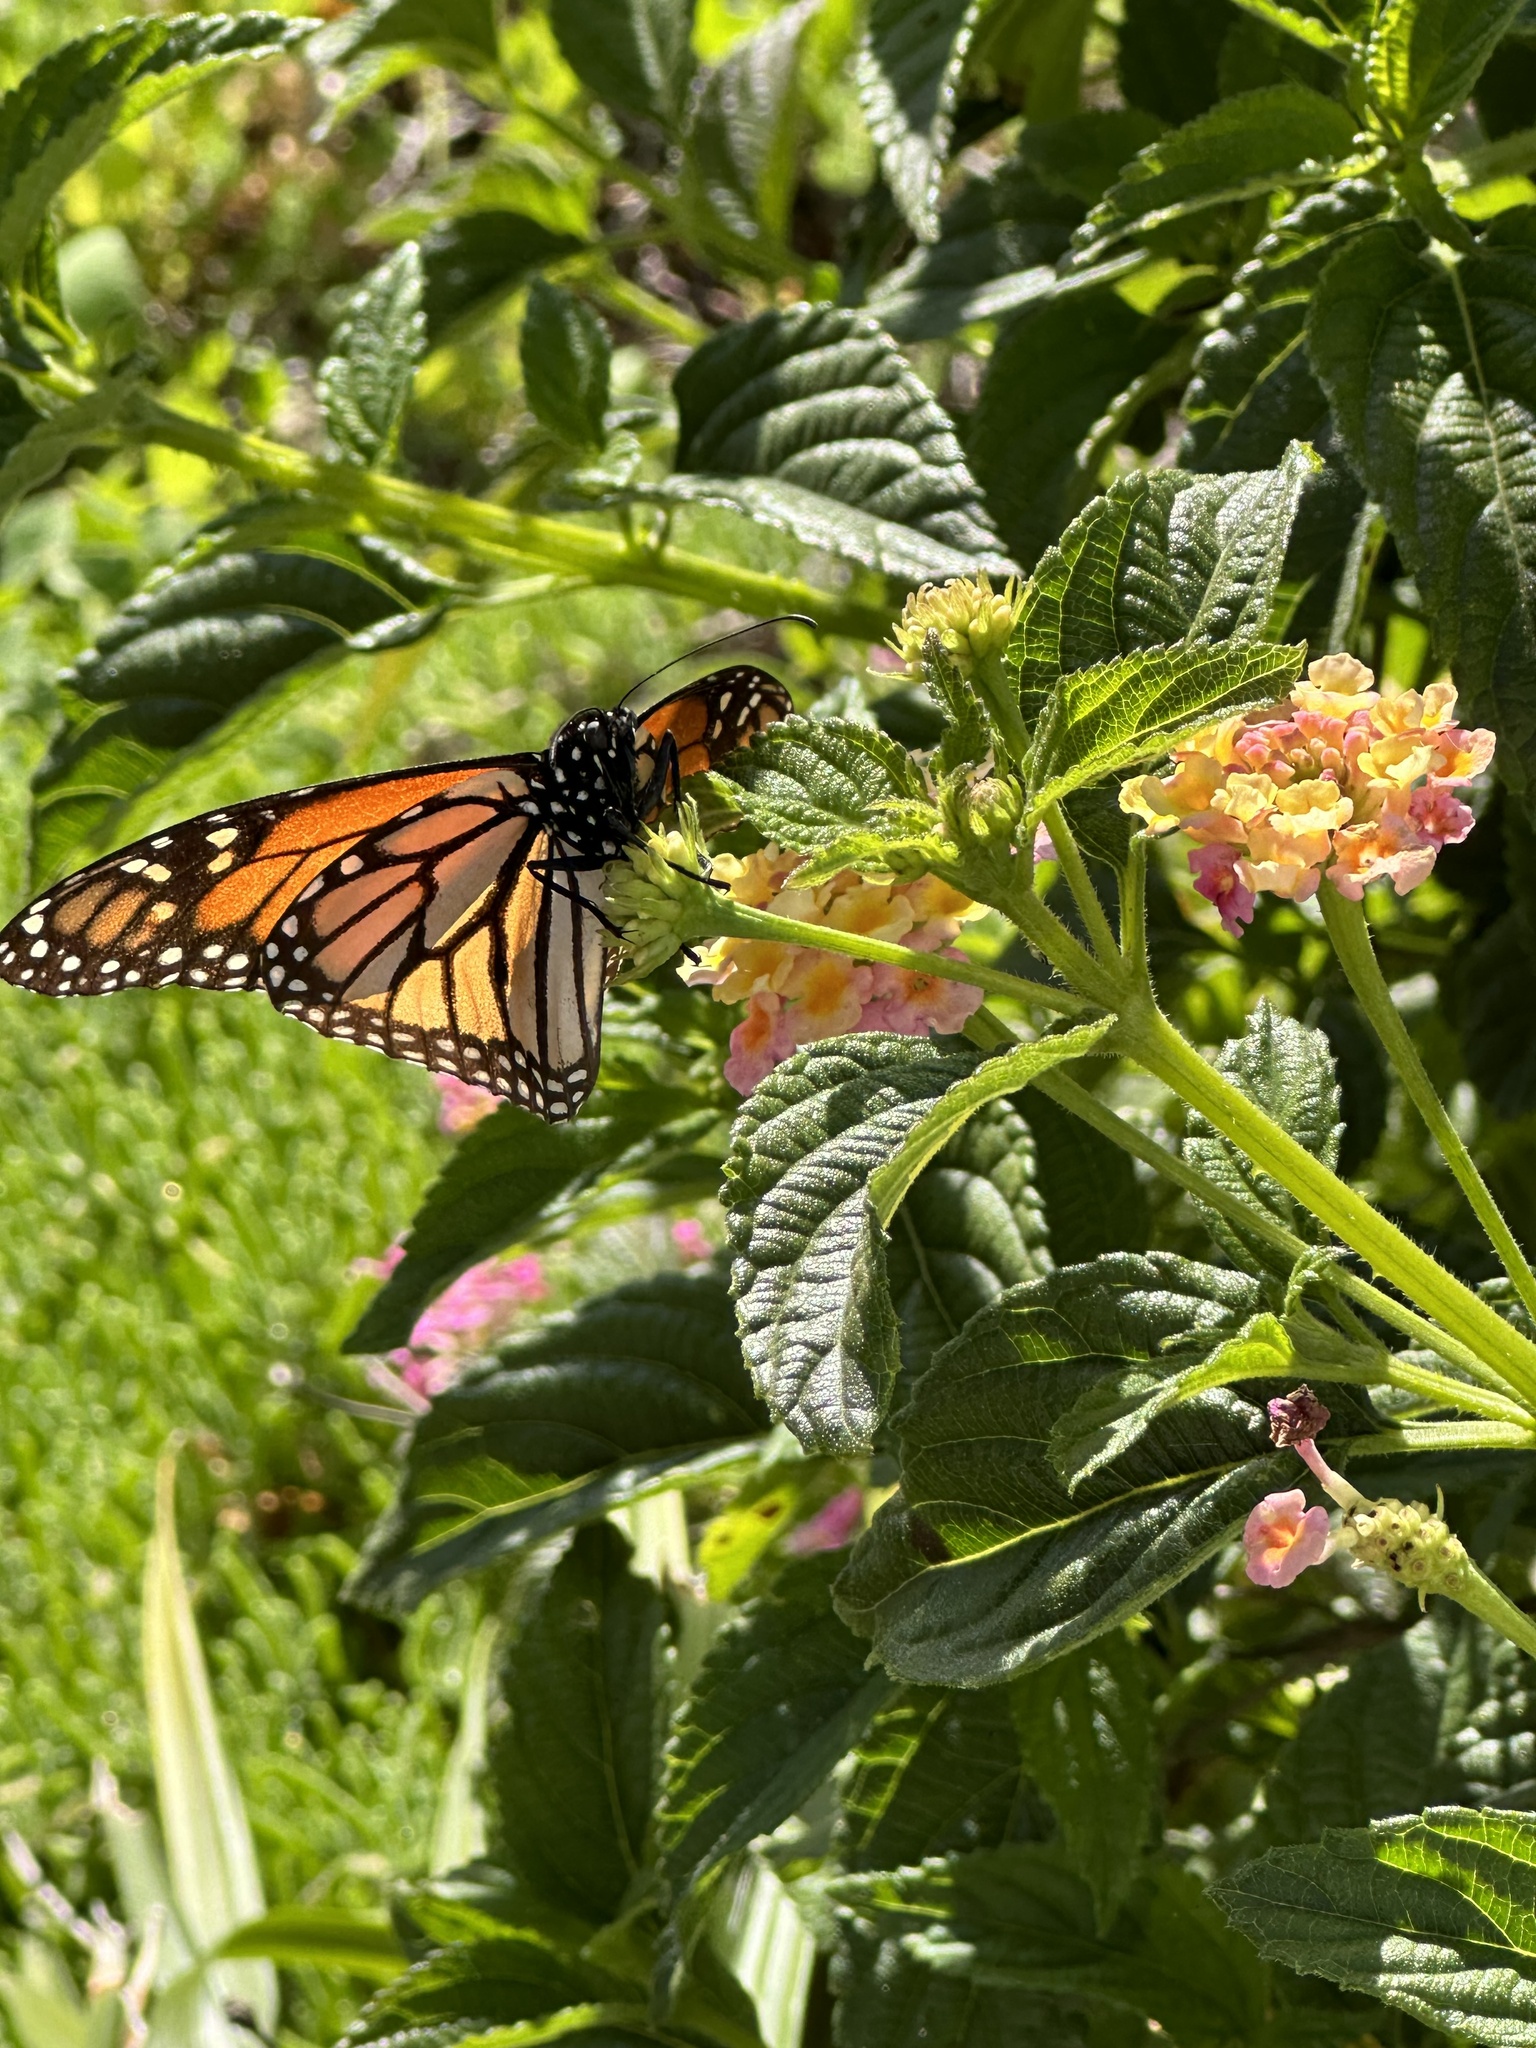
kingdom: Animalia
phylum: Arthropoda
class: Insecta
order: Lepidoptera
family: Nymphalidae
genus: Danaus
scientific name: Danaus plexippus
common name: Monarch
